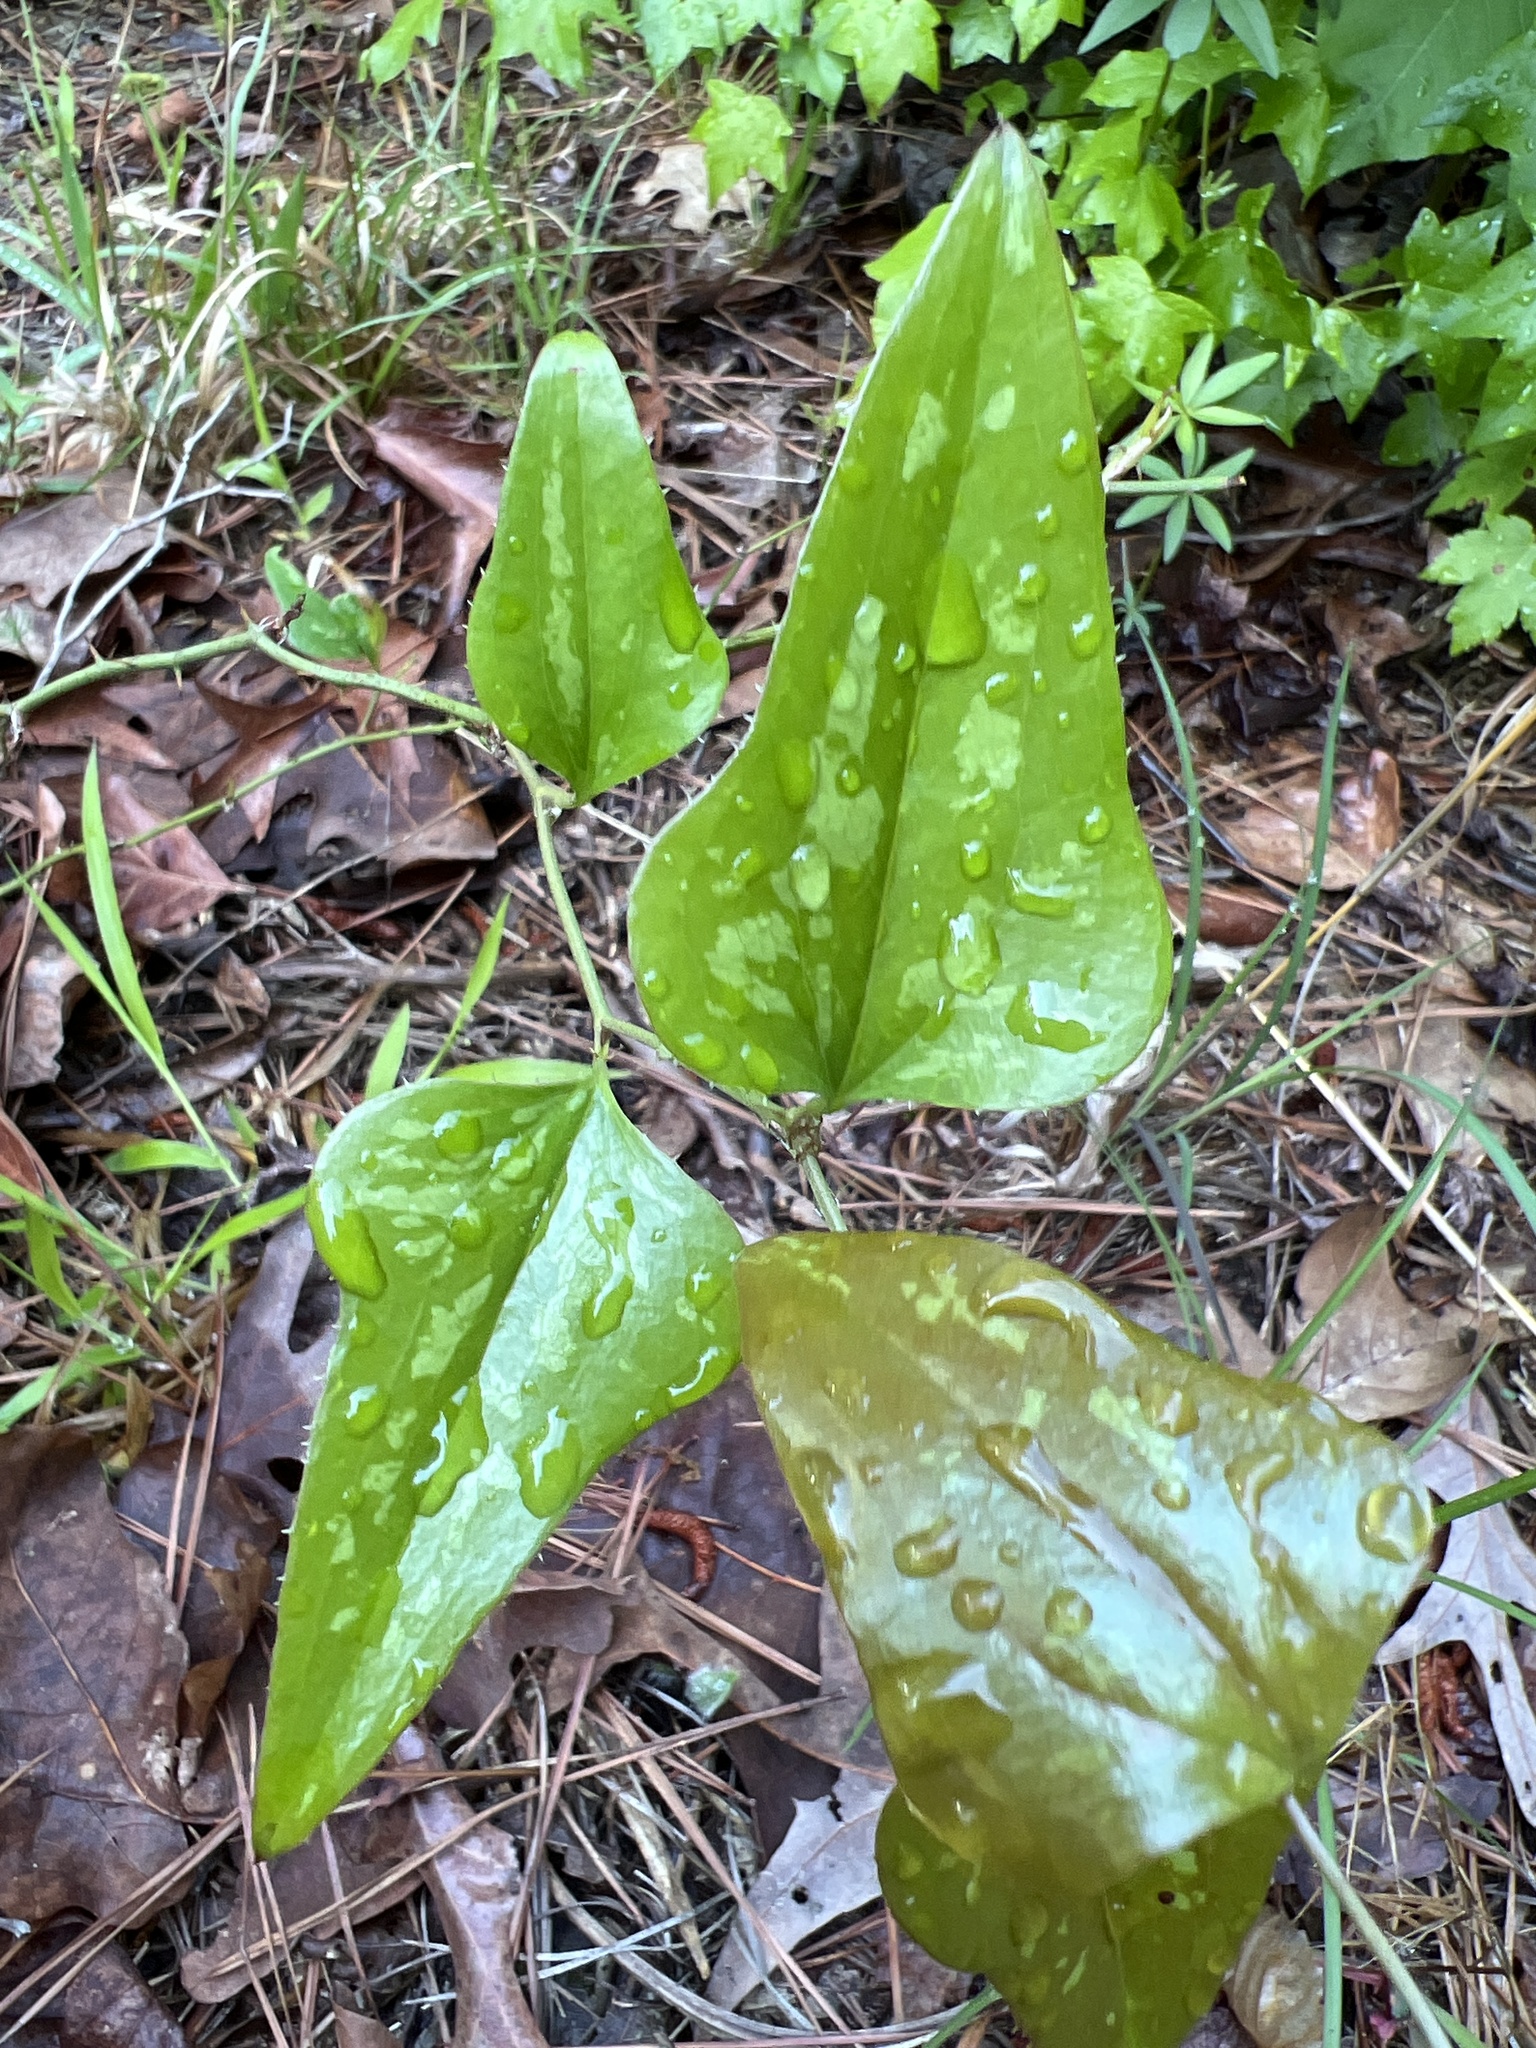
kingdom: Plantae
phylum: Tracheophyta
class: Liliopsida
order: Liliales
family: Smilacaceae
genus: Smilax
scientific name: Smilax bona-nox
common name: Catbrier
